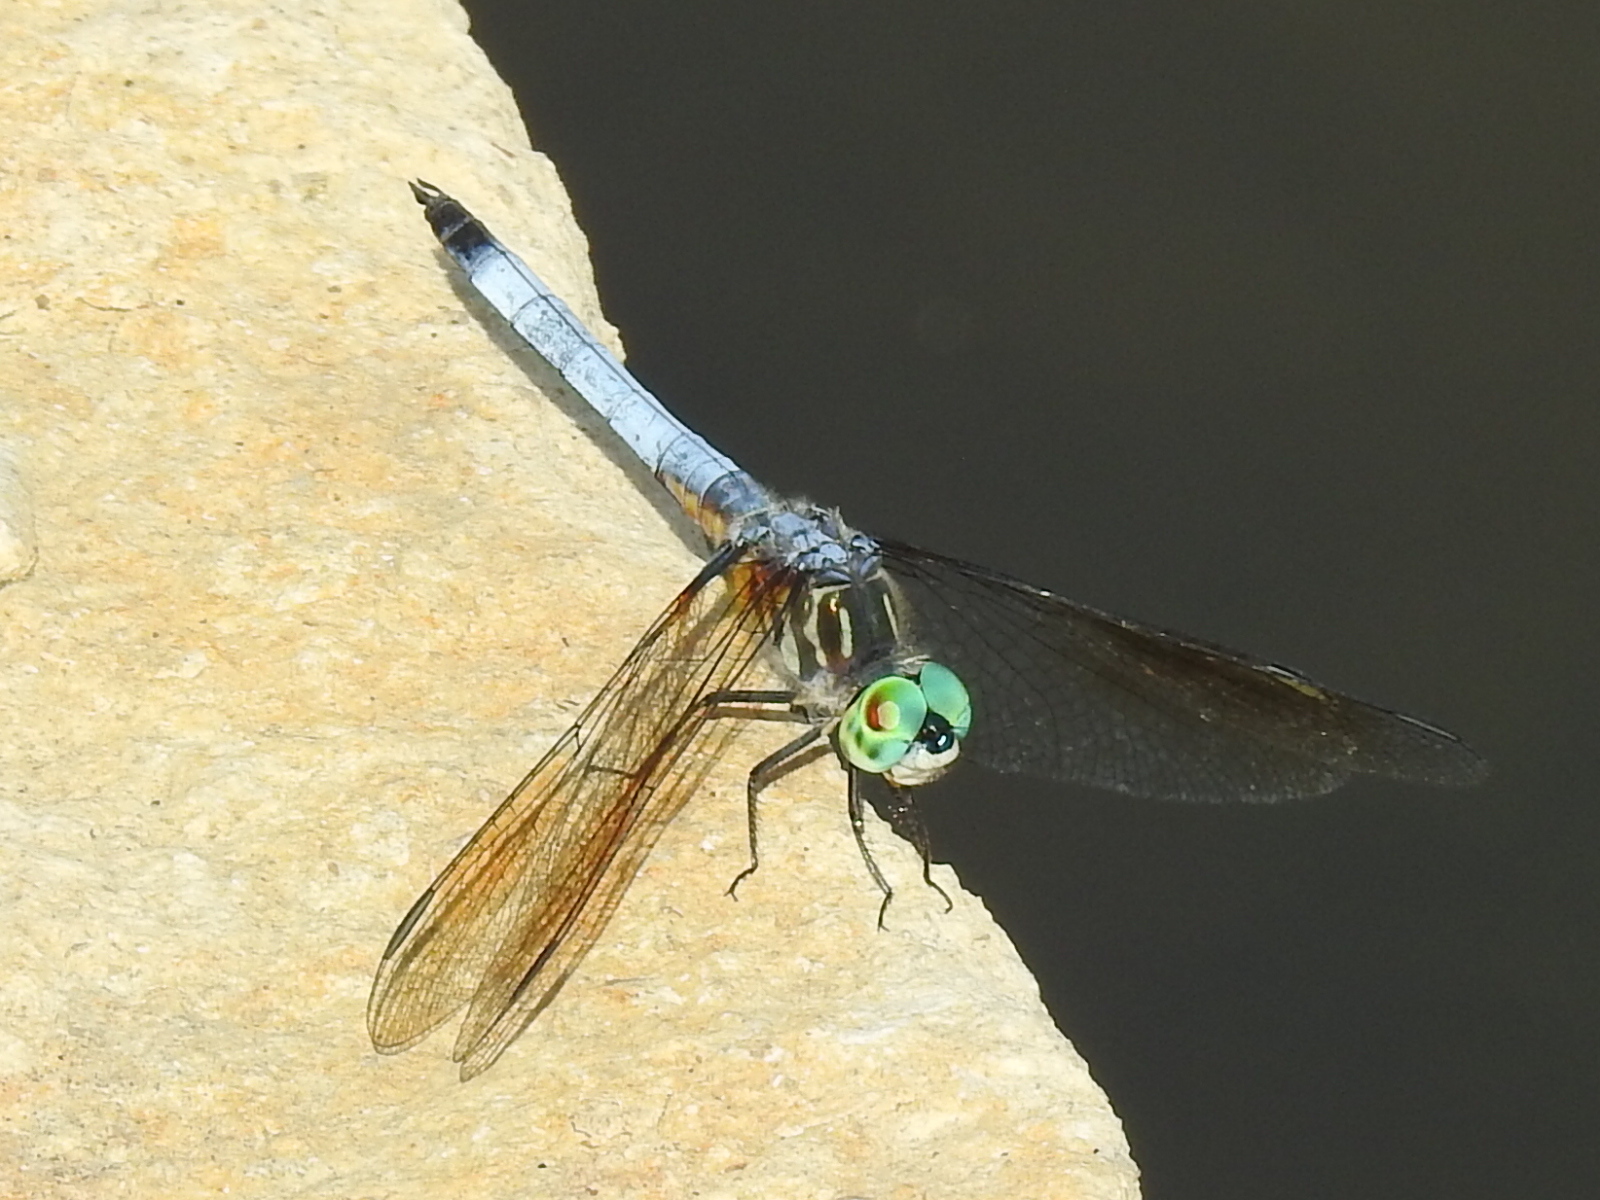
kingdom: Animalia
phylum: Arthropoda
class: Insecta
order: Odonata
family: Libellulidae
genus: Pachydiplax
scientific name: Pachydiplax longipennis
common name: Blue dasher
